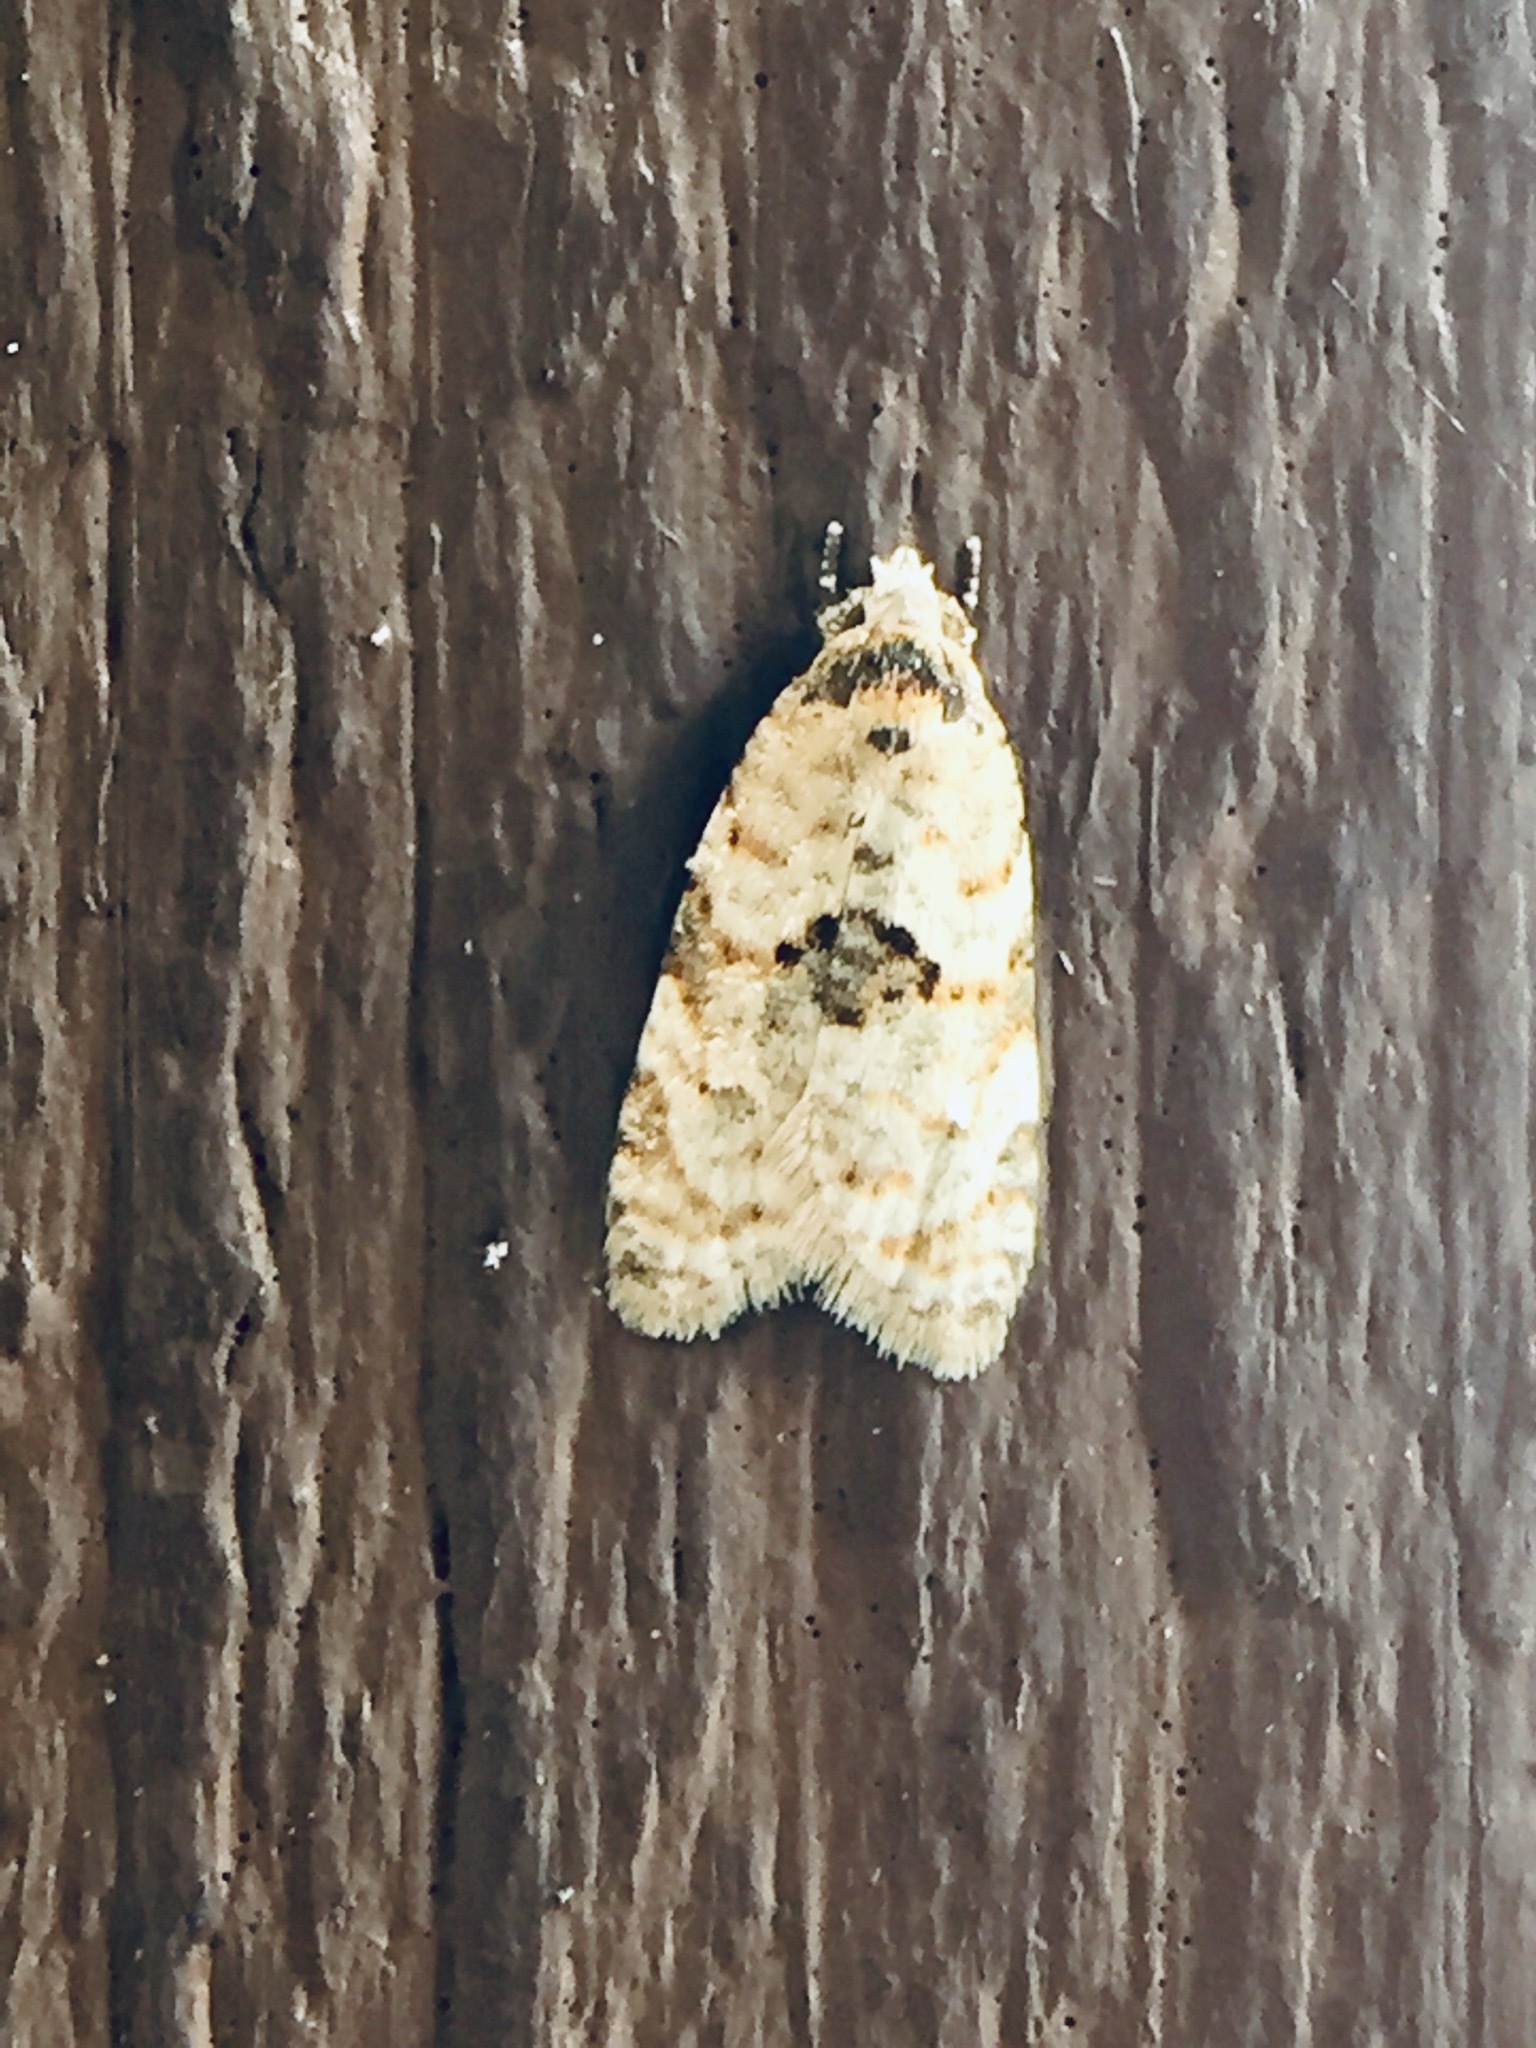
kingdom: Animalia
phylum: Arthropoda
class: Insecta
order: Lepidoptera
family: Tortricidae
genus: Dipterina
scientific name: Dipterina imbriferana
